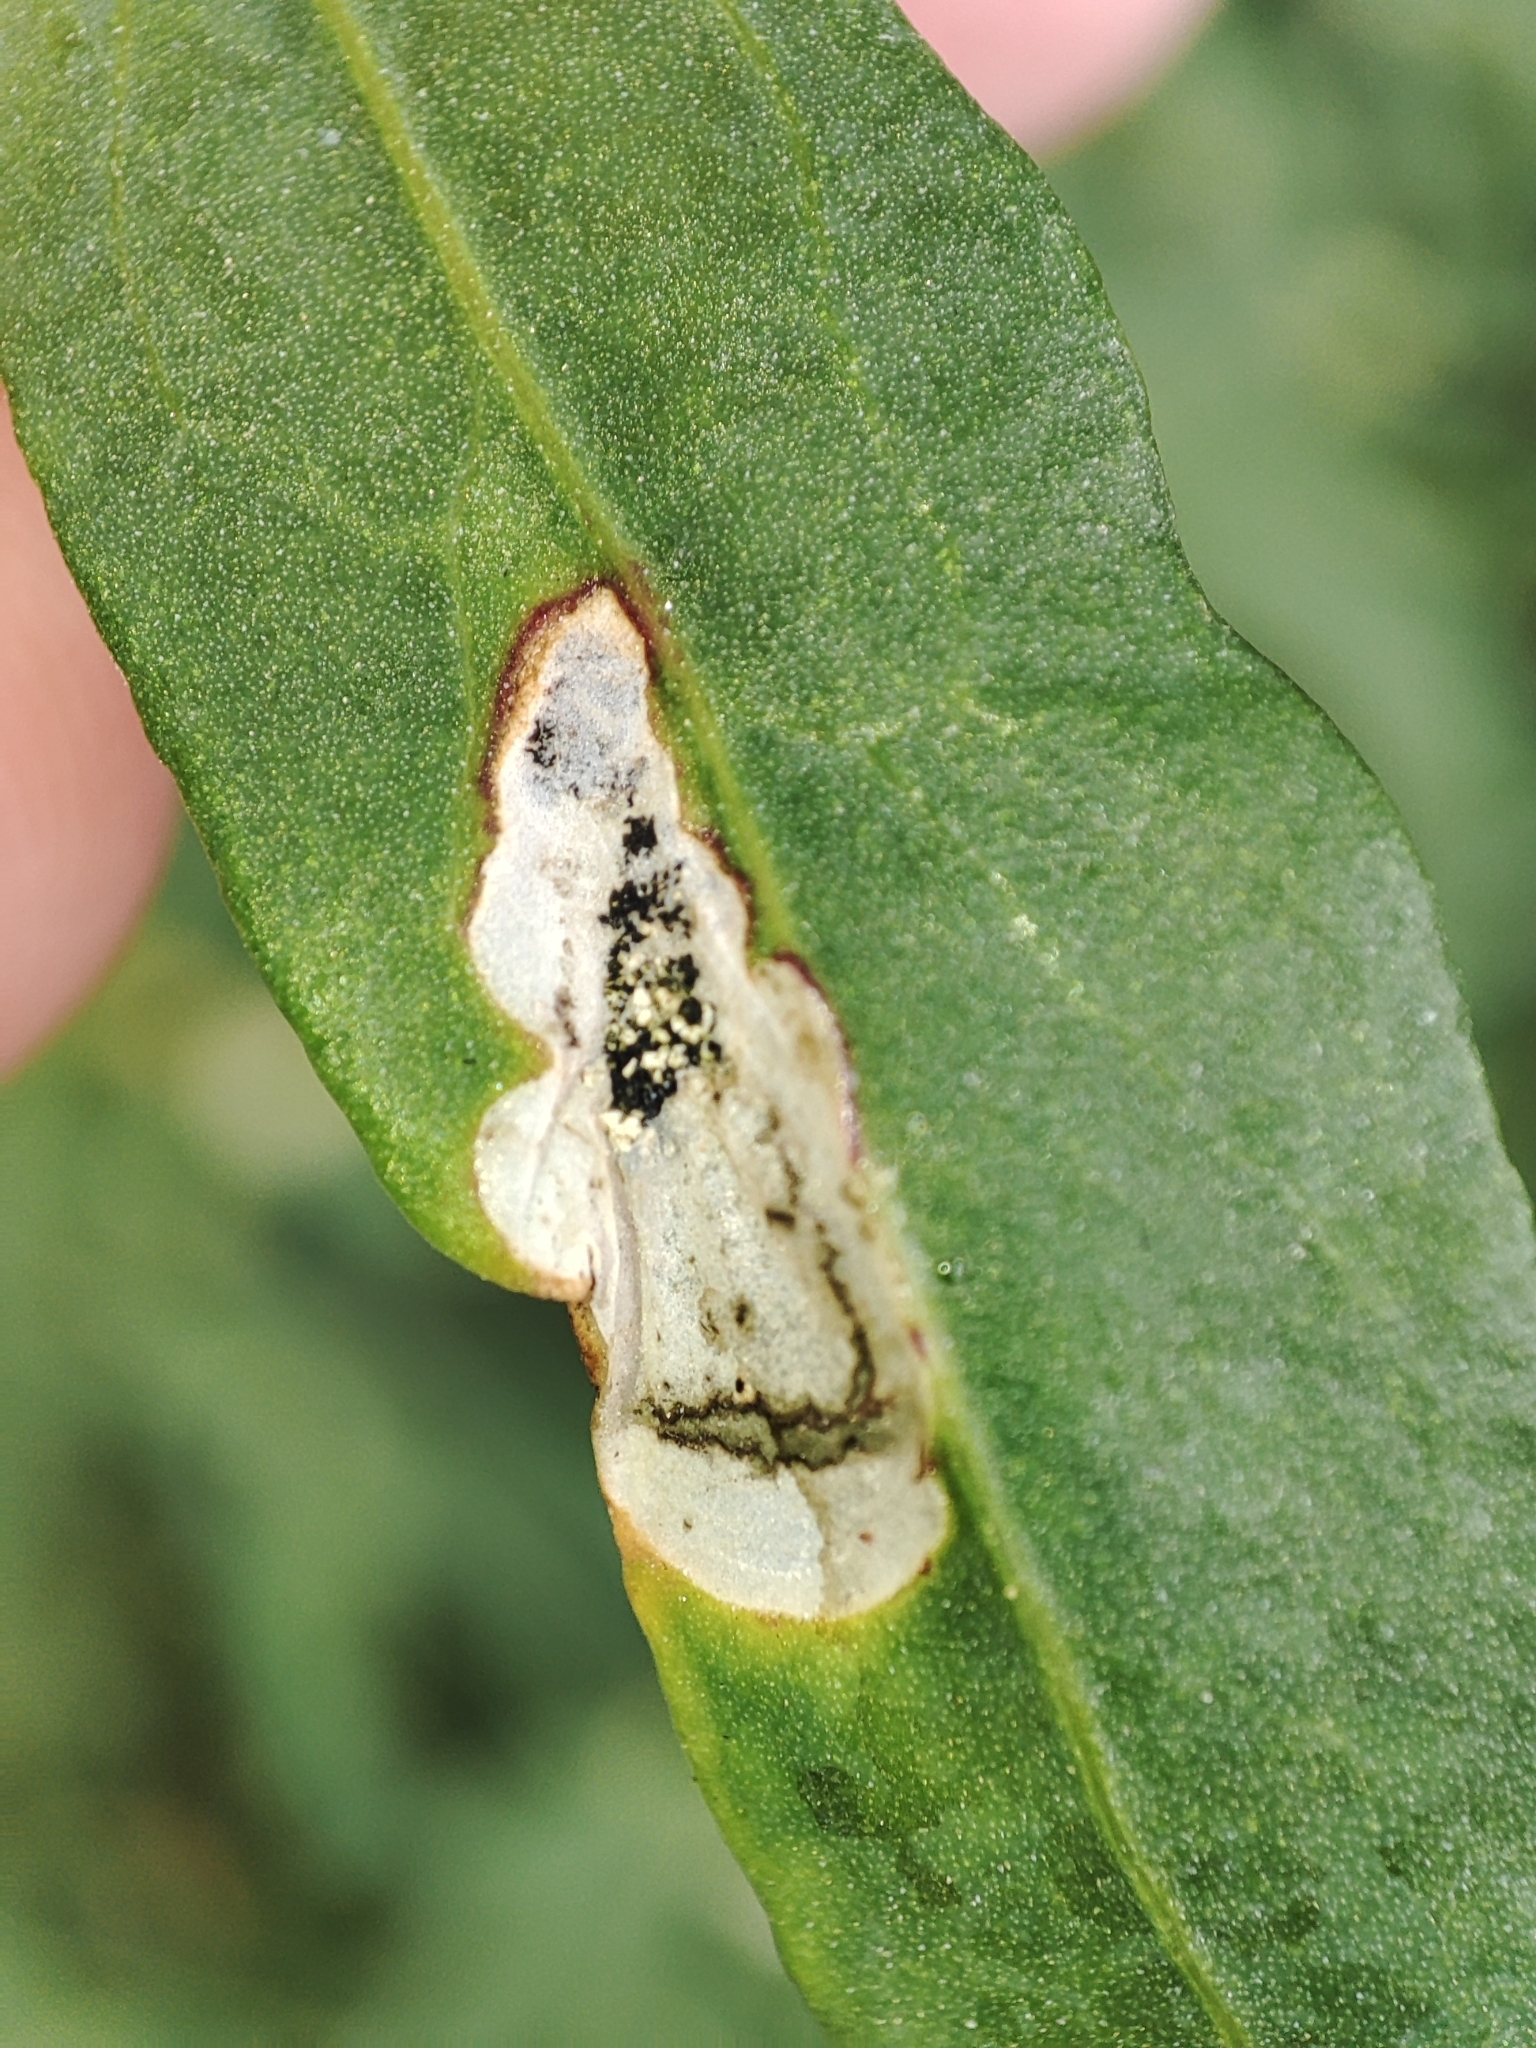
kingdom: Plantae
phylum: Tracheophyta
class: Magnoliopsida
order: Caryophyllales
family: Amaranthaceae
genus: Atriplex
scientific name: Atriplex patula
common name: Common orache
